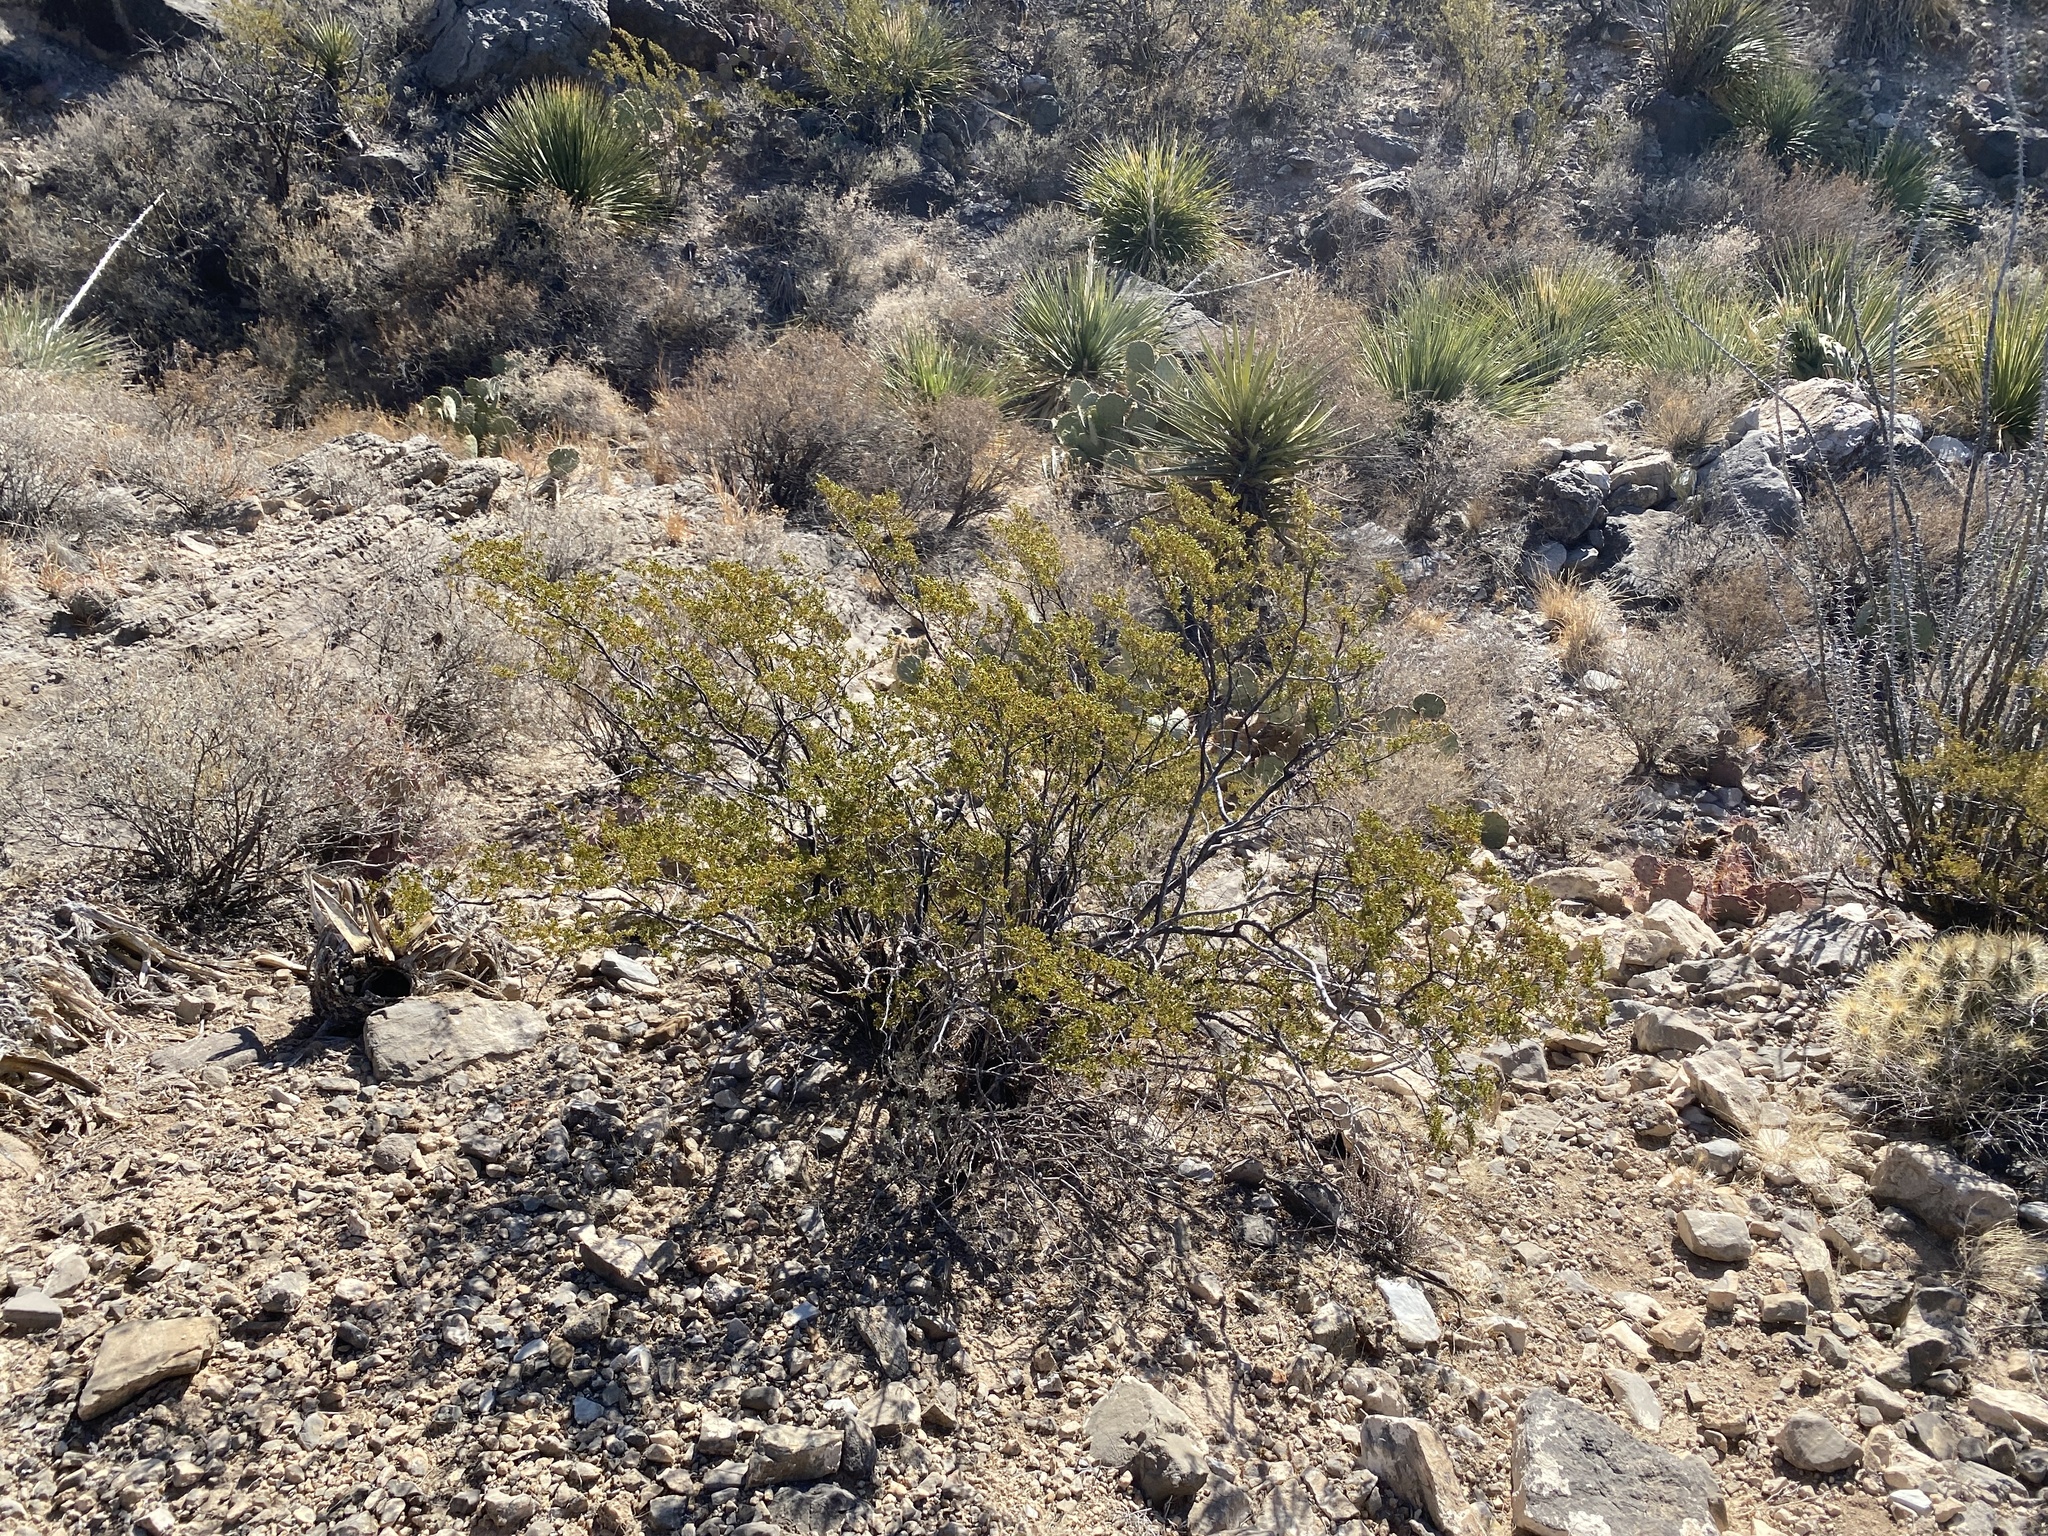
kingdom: Plantae
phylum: Tracheophyta
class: Magnoliopsida
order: Zygophyllales
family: Zygophyllaceae
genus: Larrea
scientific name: Larrea tridentata
